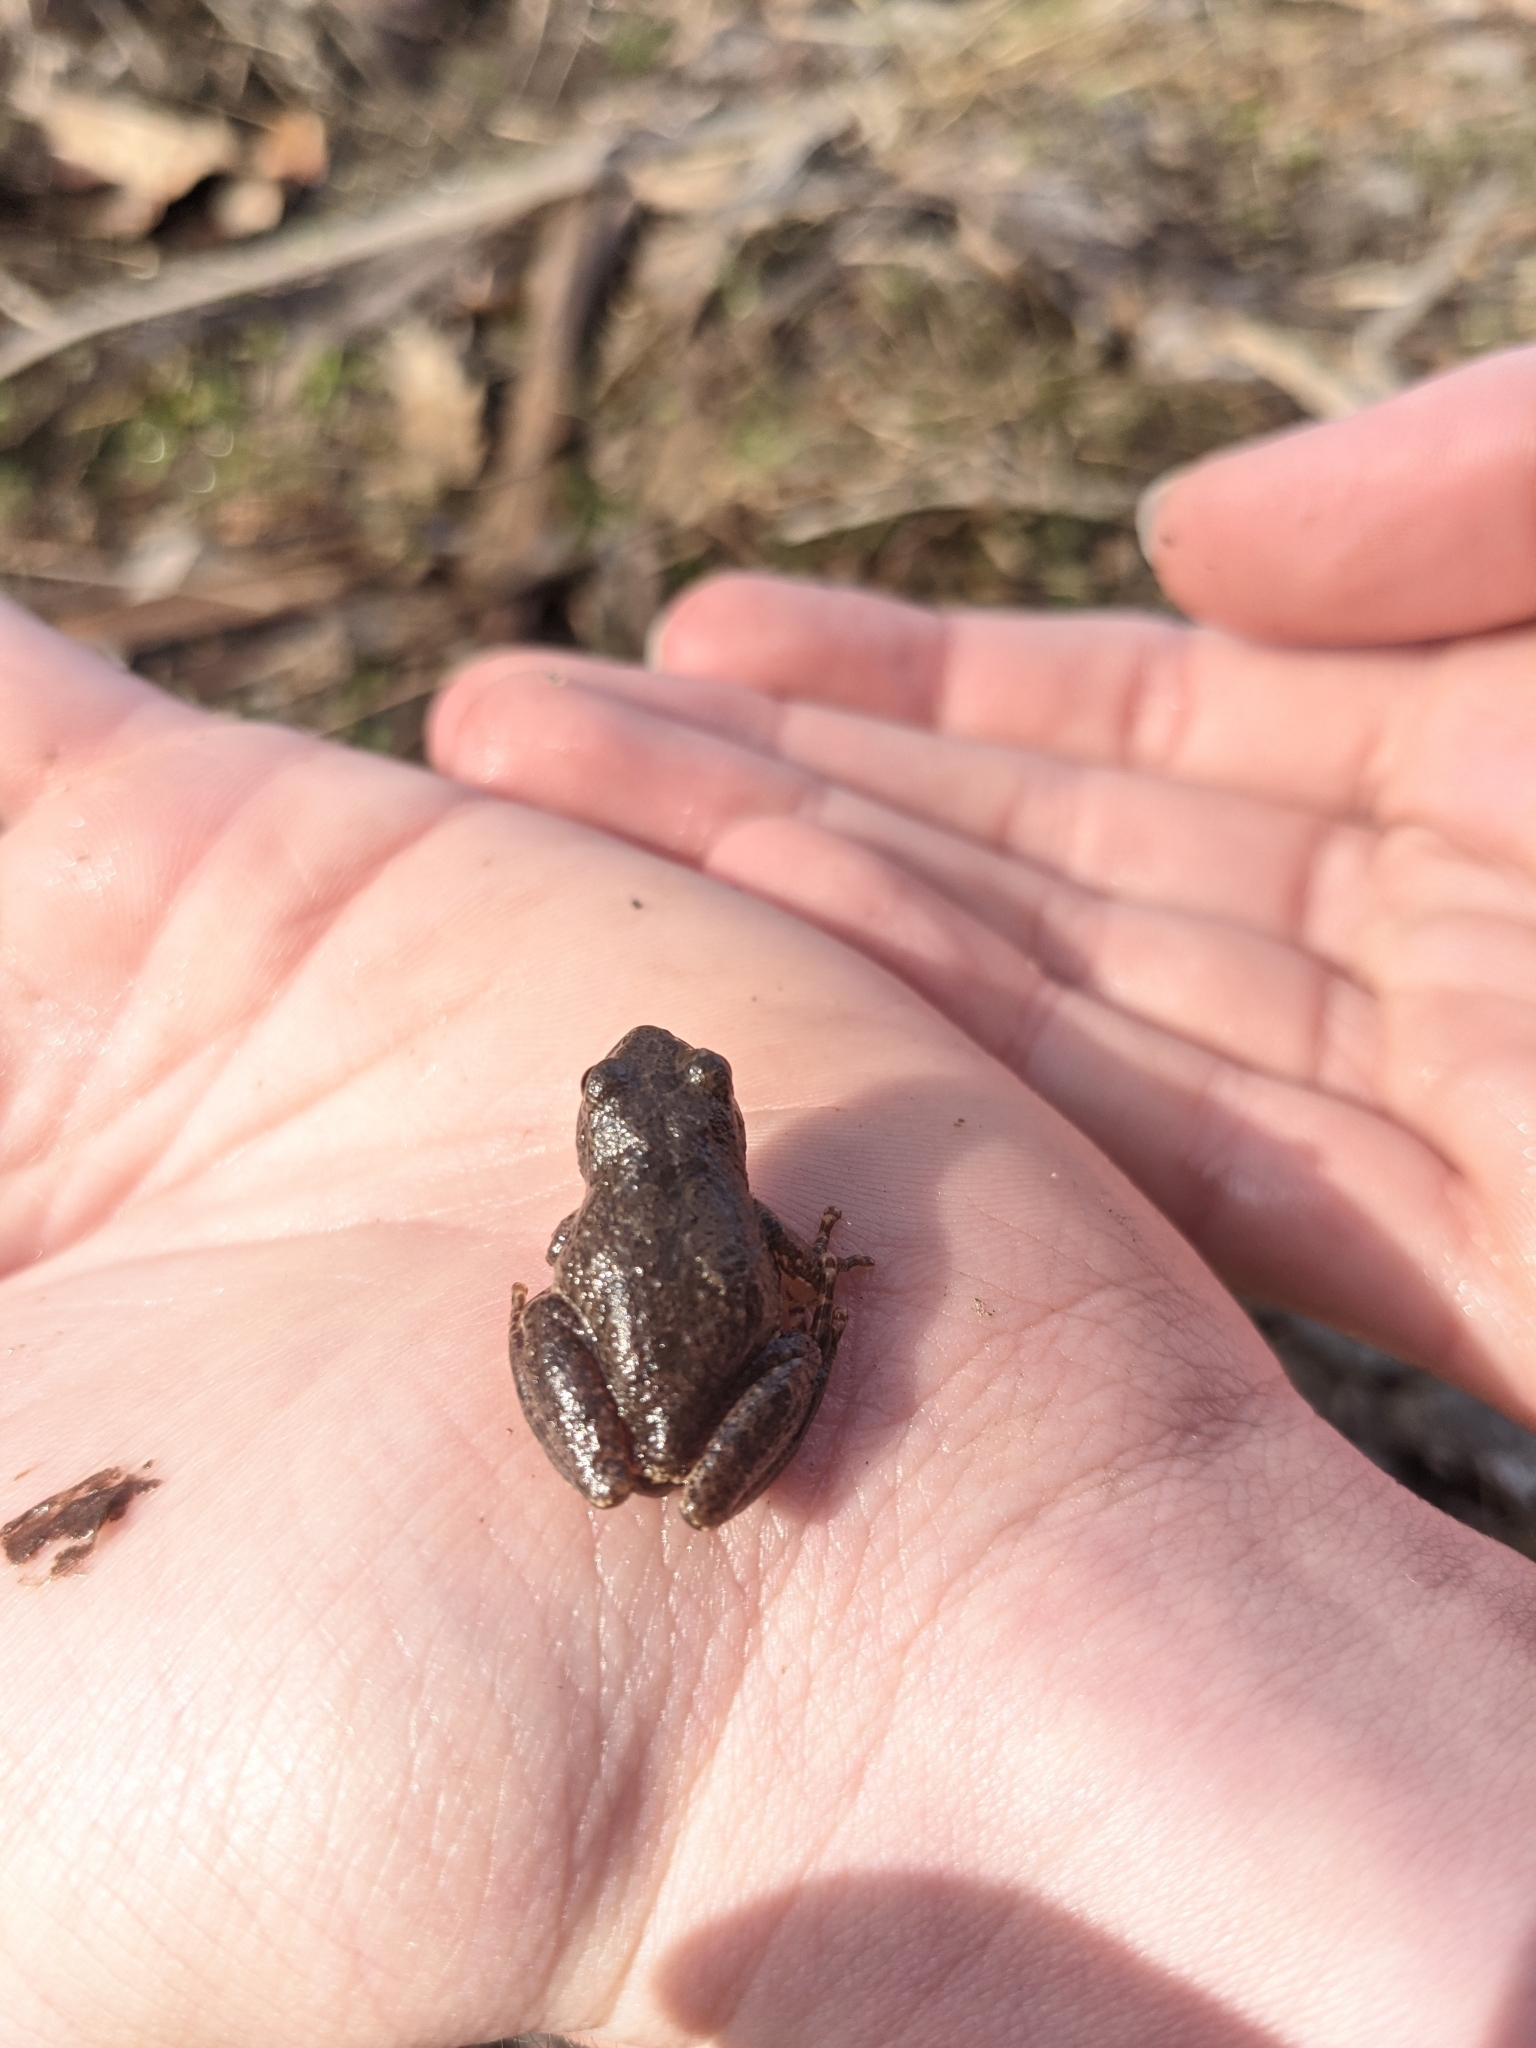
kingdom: Animalia
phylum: Chordata
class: Amphibia
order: Anura
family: Hylidae
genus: Pseudacris
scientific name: Pseudacris crucifer
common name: Spring peeper
